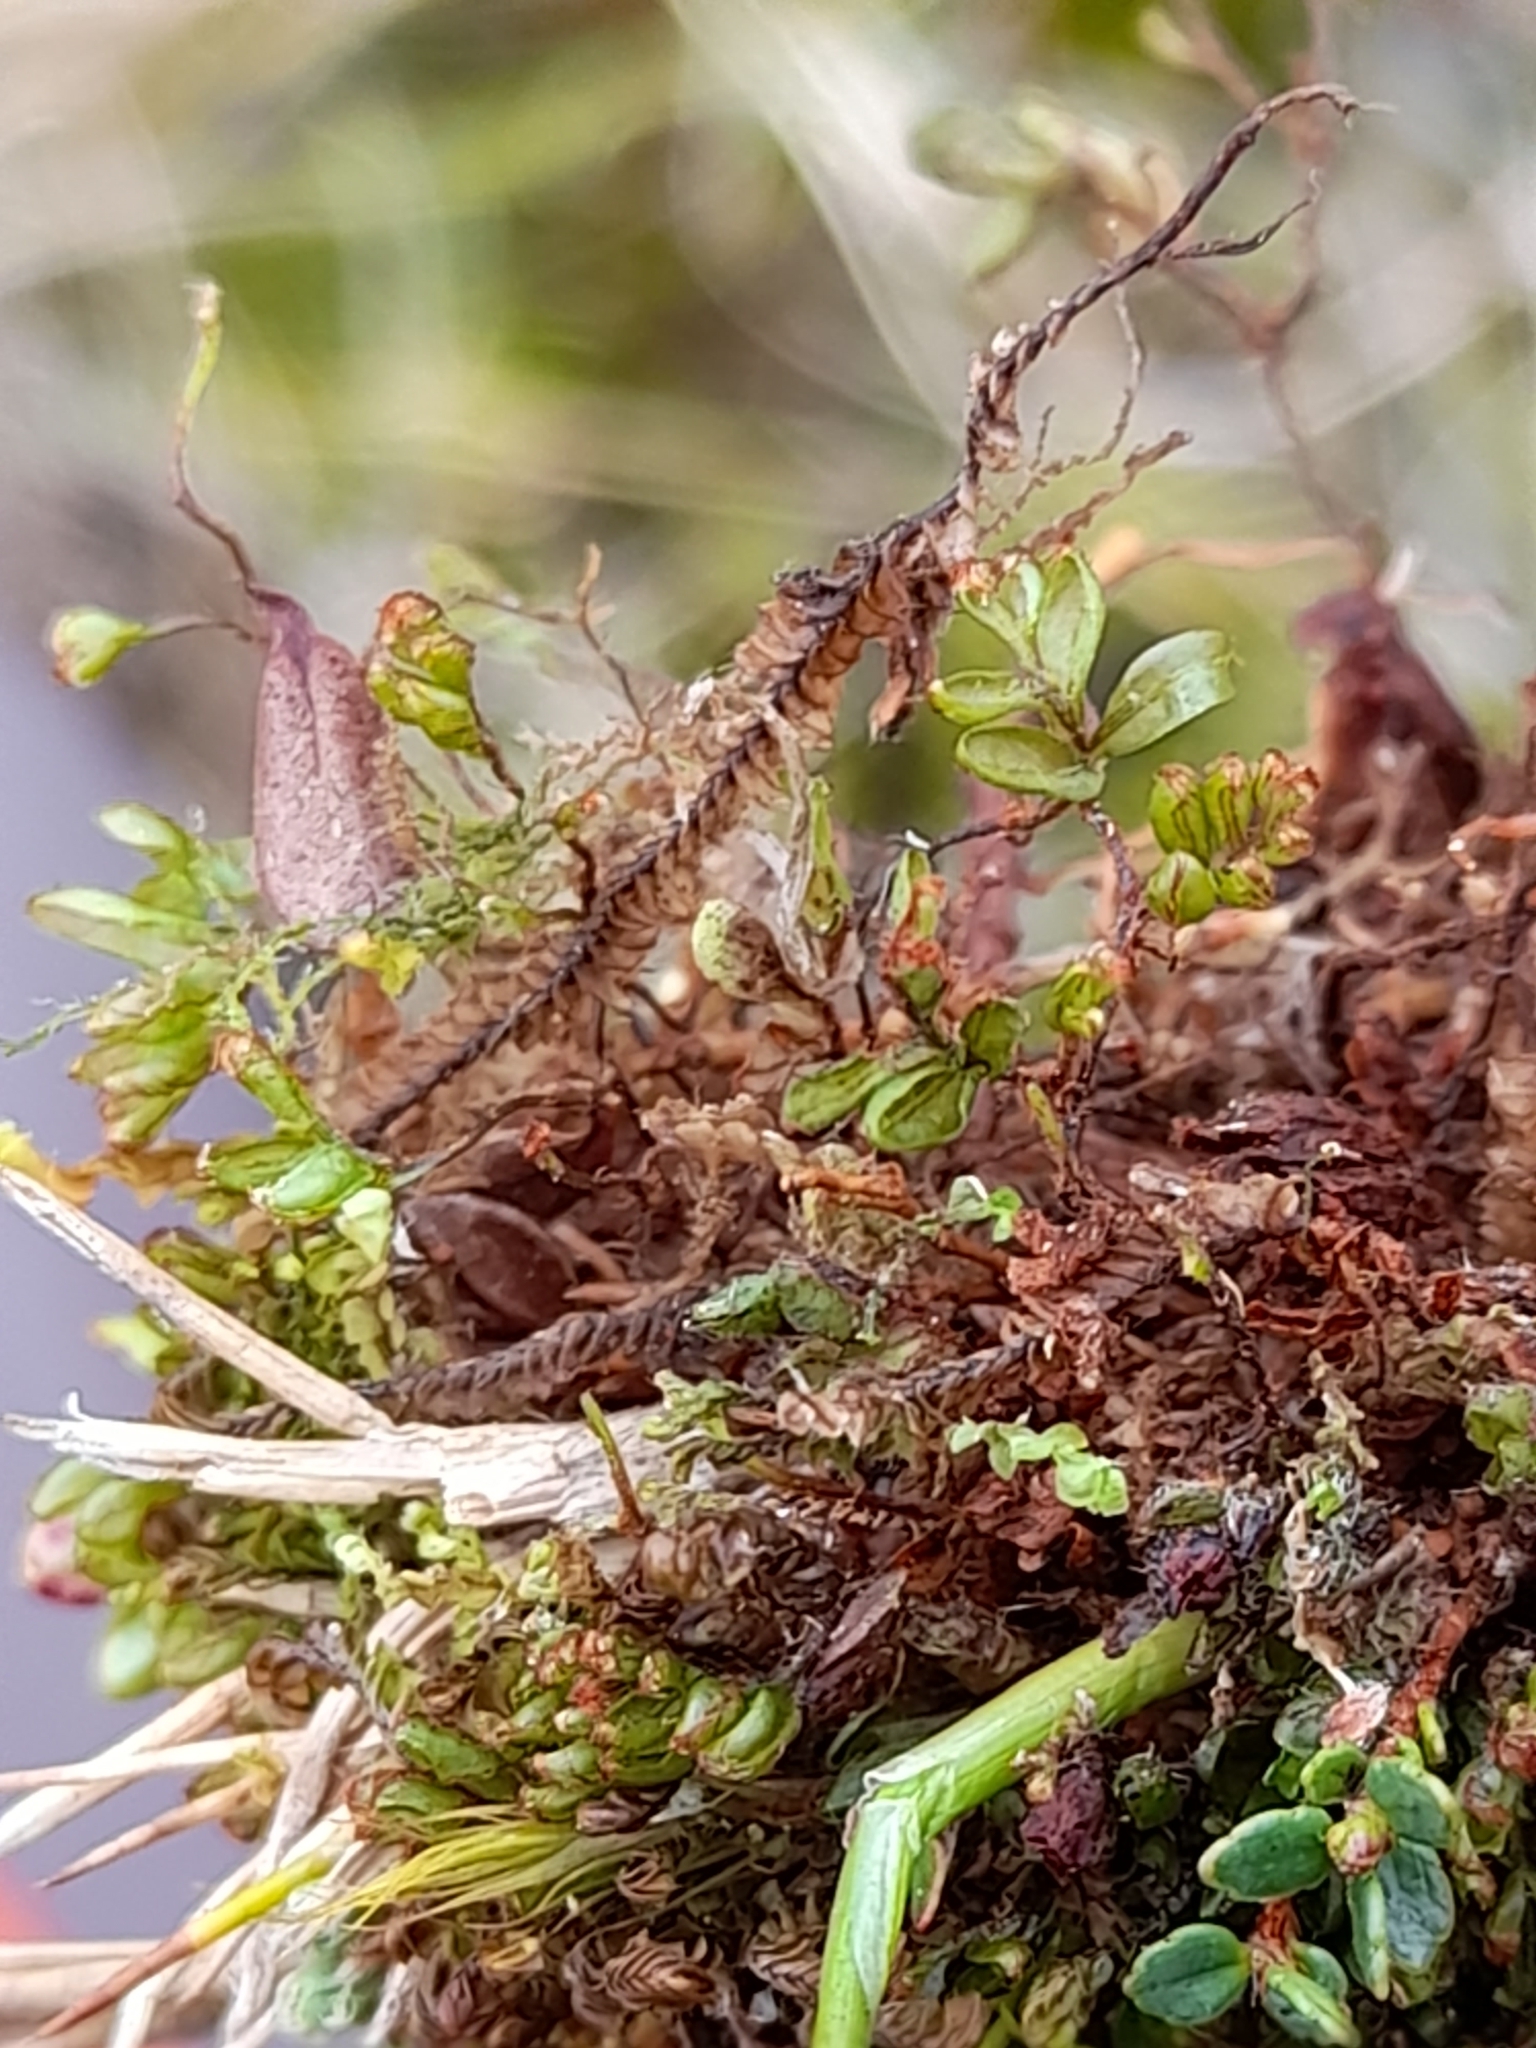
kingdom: Plantae
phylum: Tracheophyta
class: Polypodiopsida
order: Hymenophyllales
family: Hymenophyllaceae
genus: Hymenophyllum
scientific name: Hymenophyllum caespitosum
